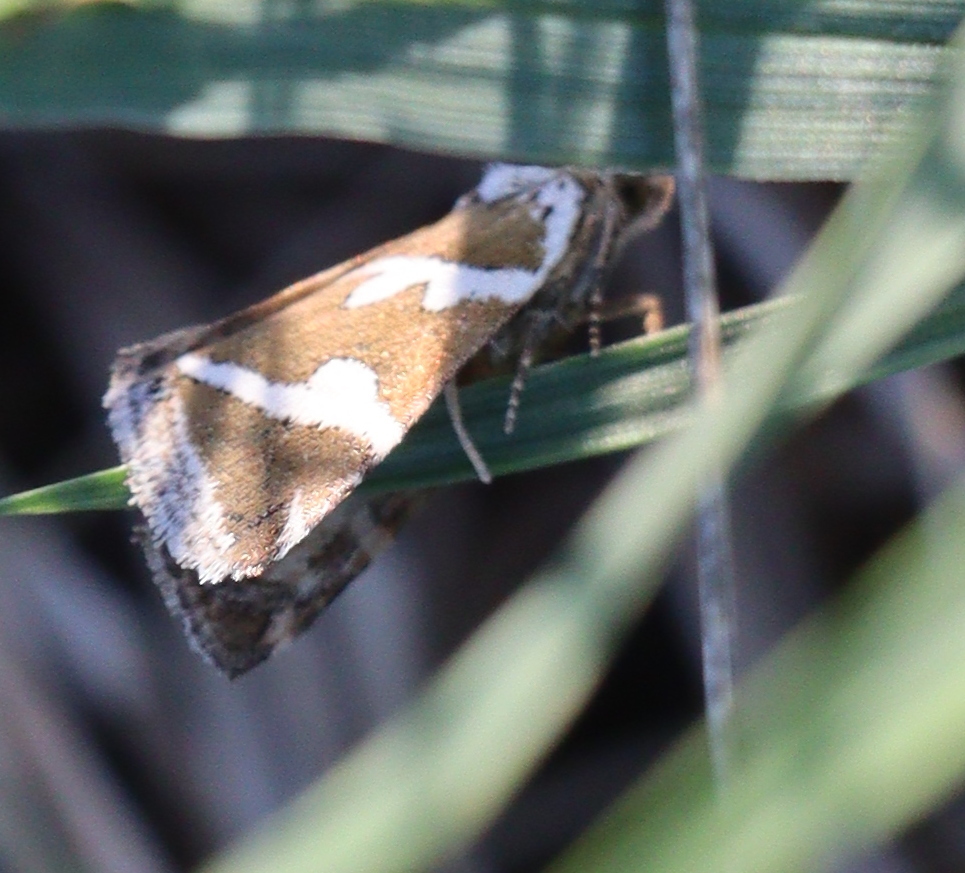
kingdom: Animalia
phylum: Arthropoda
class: Insecta
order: Lepidoptera
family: Noctuidae
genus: Deltote
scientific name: Deltote bankiana
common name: Silver barred
